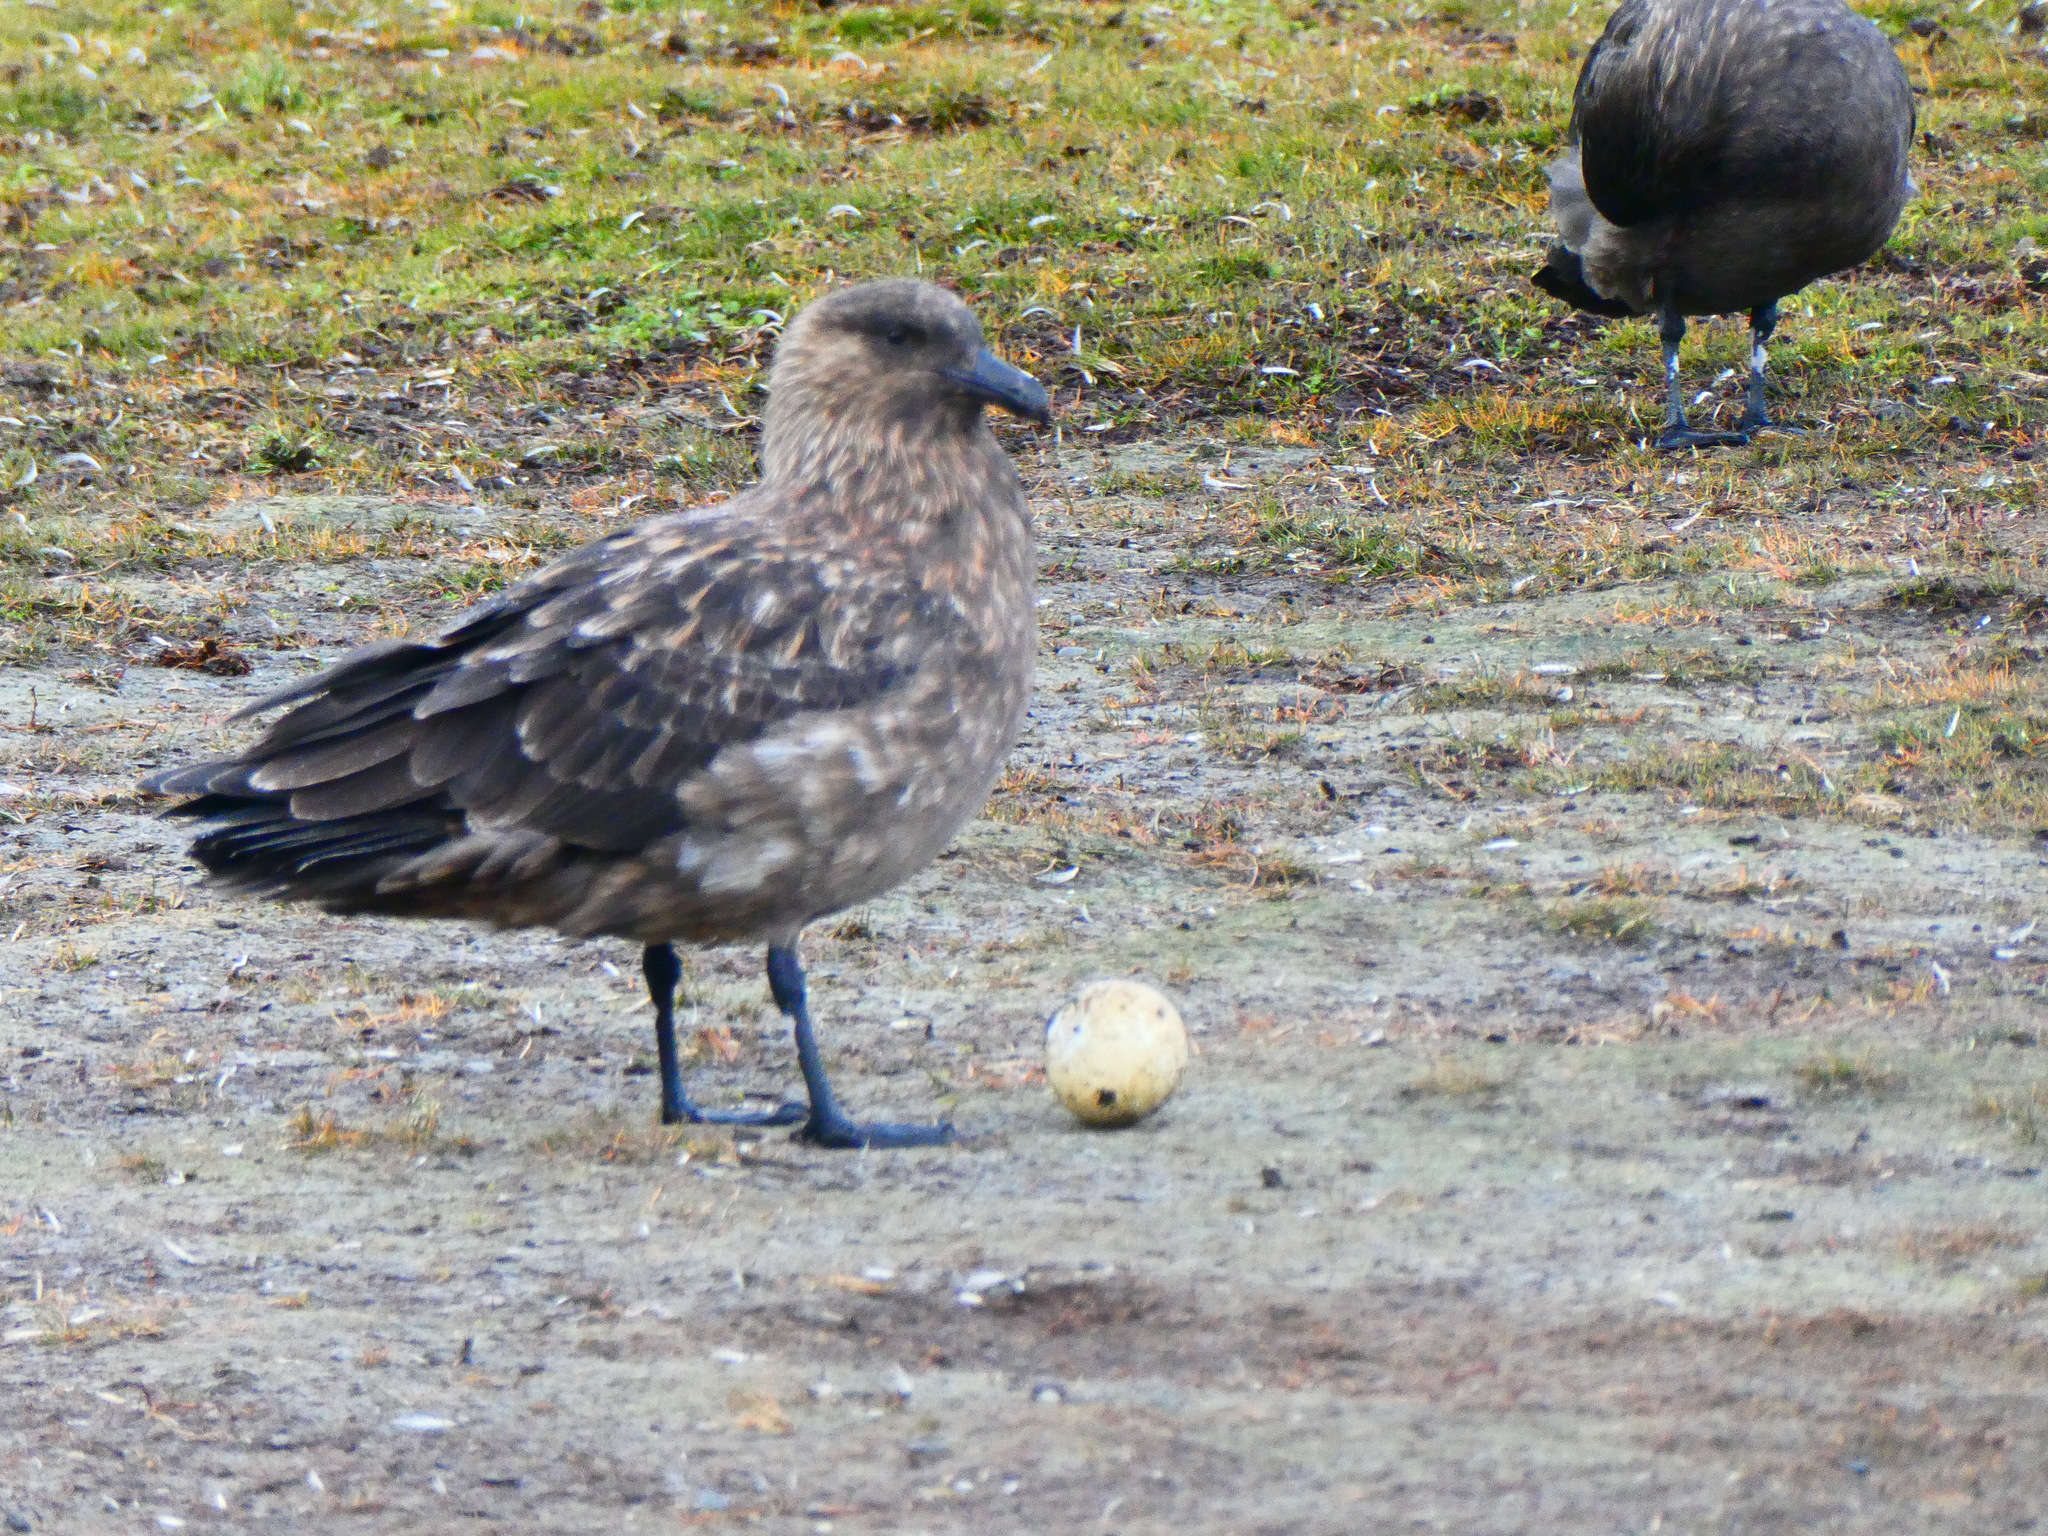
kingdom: Animalia
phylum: Chordata
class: Aves
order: Charadriiformes
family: Stercorariidae
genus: Stercorarius
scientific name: Stercorarius antarcticus
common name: Brown skua
